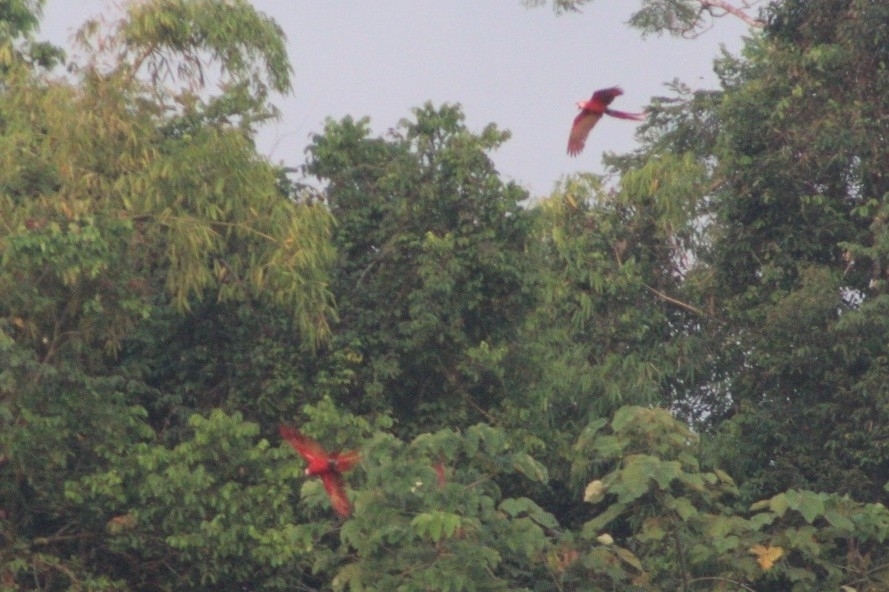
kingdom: Animalia
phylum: Chordata
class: Aves
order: Psittaciformes
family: Psittacidae
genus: Ara
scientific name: Ara chloropterus
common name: Red-and-green macaw
